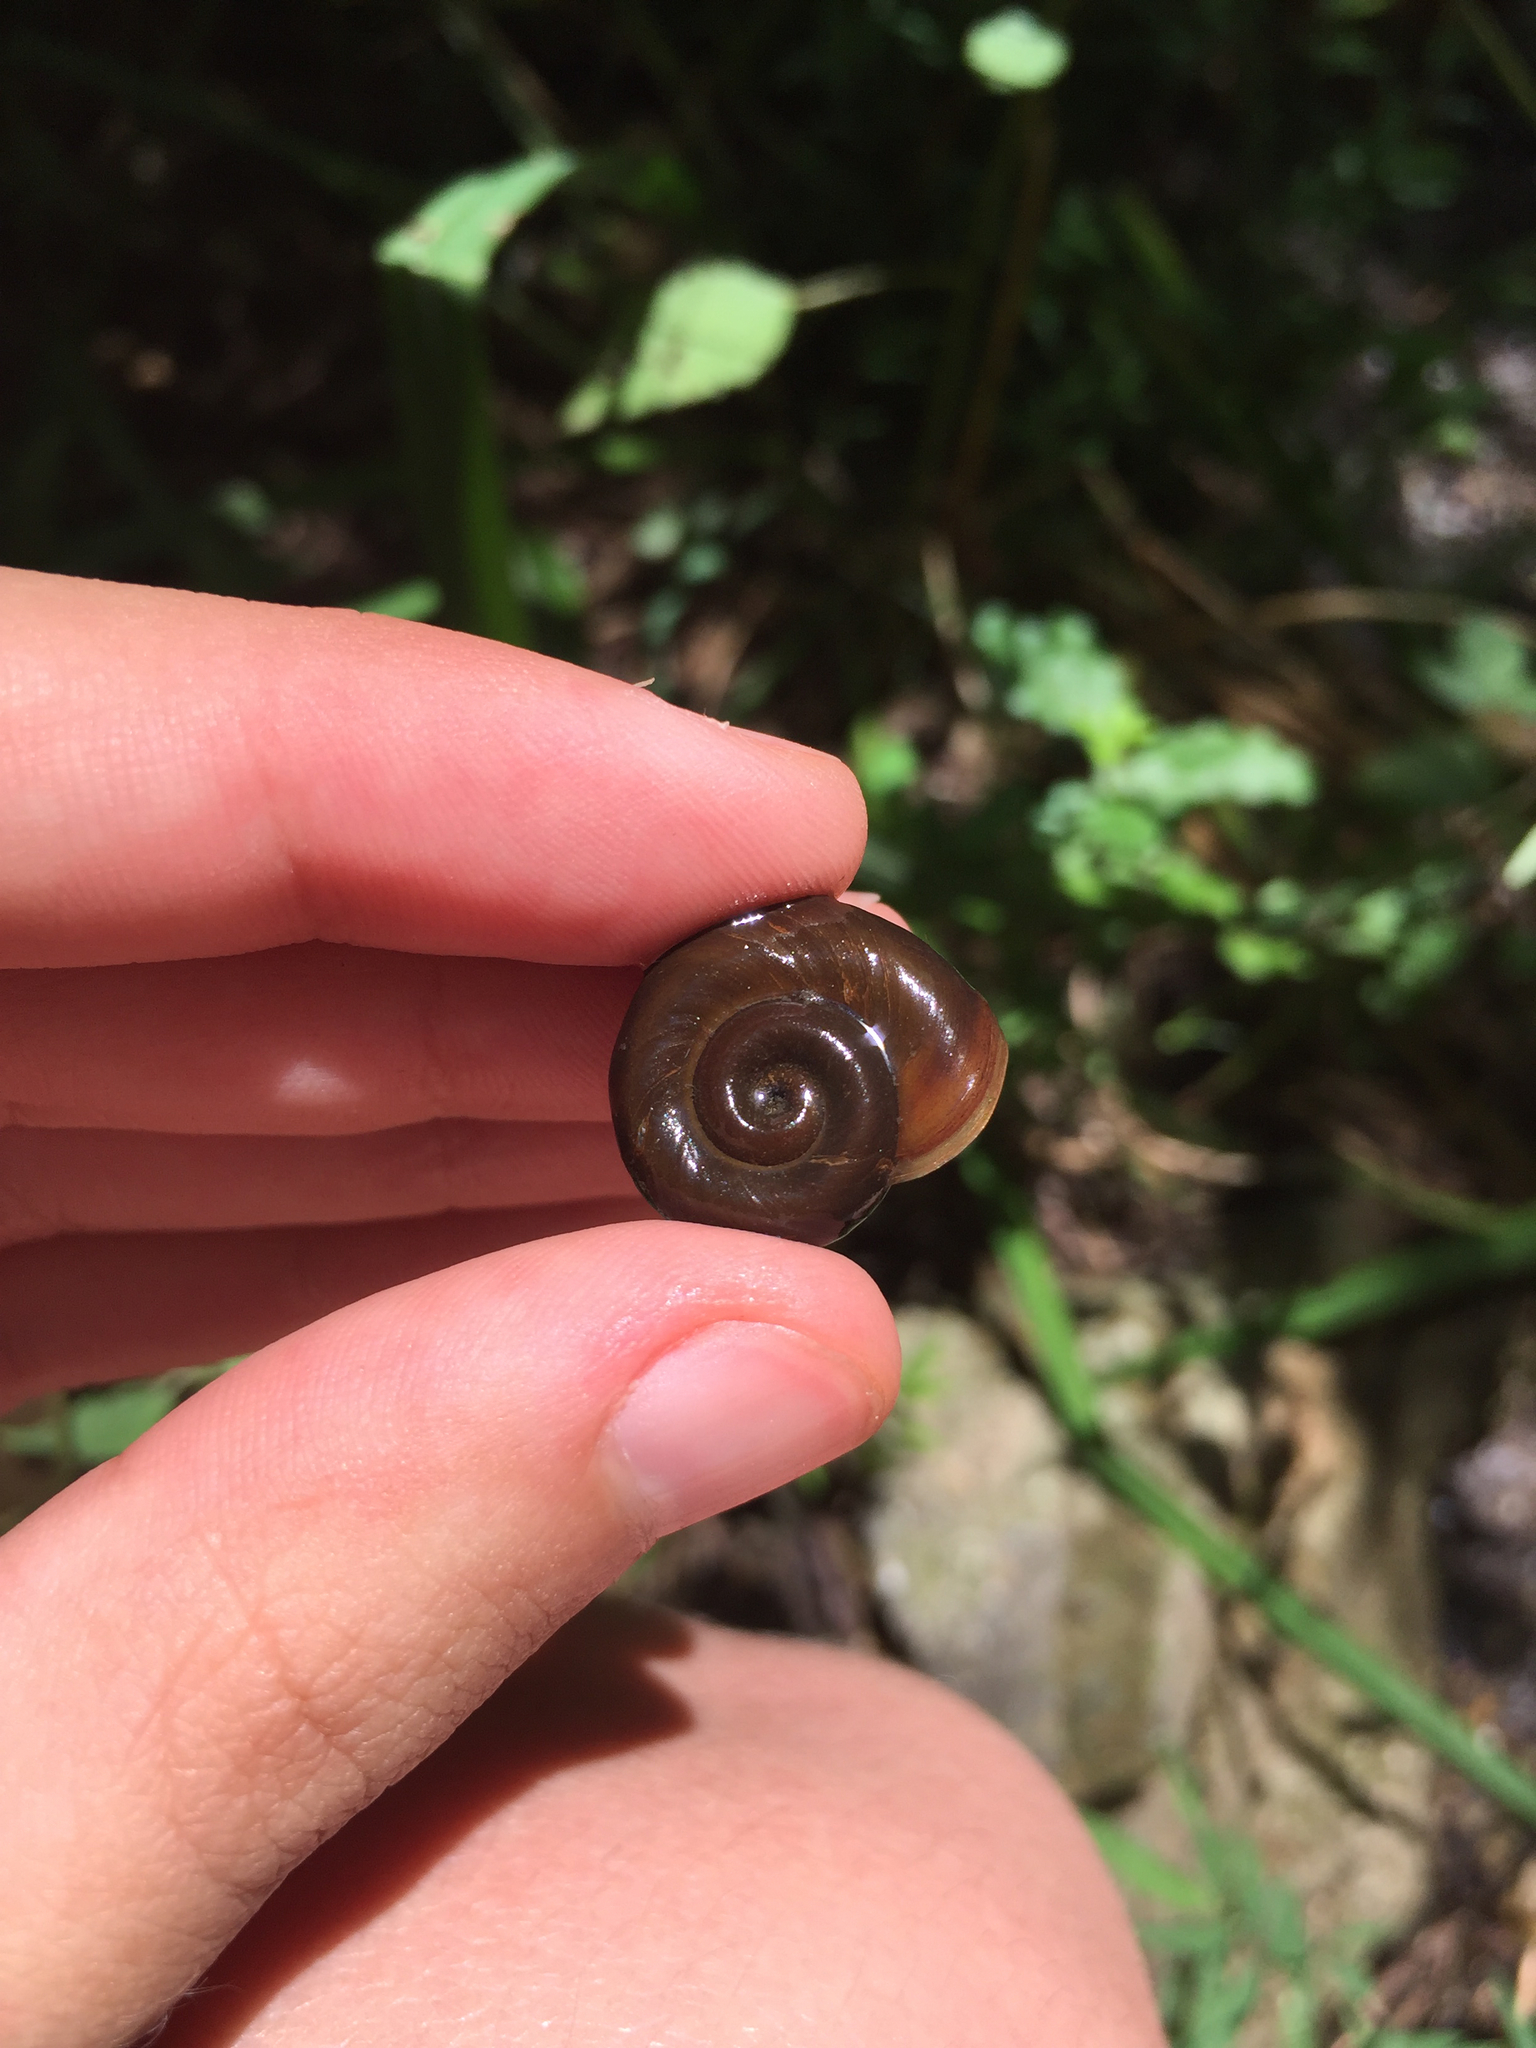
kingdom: Animalia
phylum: Mollusca
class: Gastropoda
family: Planorbidae
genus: Planorbella
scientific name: Planorbella trivolvis
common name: Marsh rams-horn
